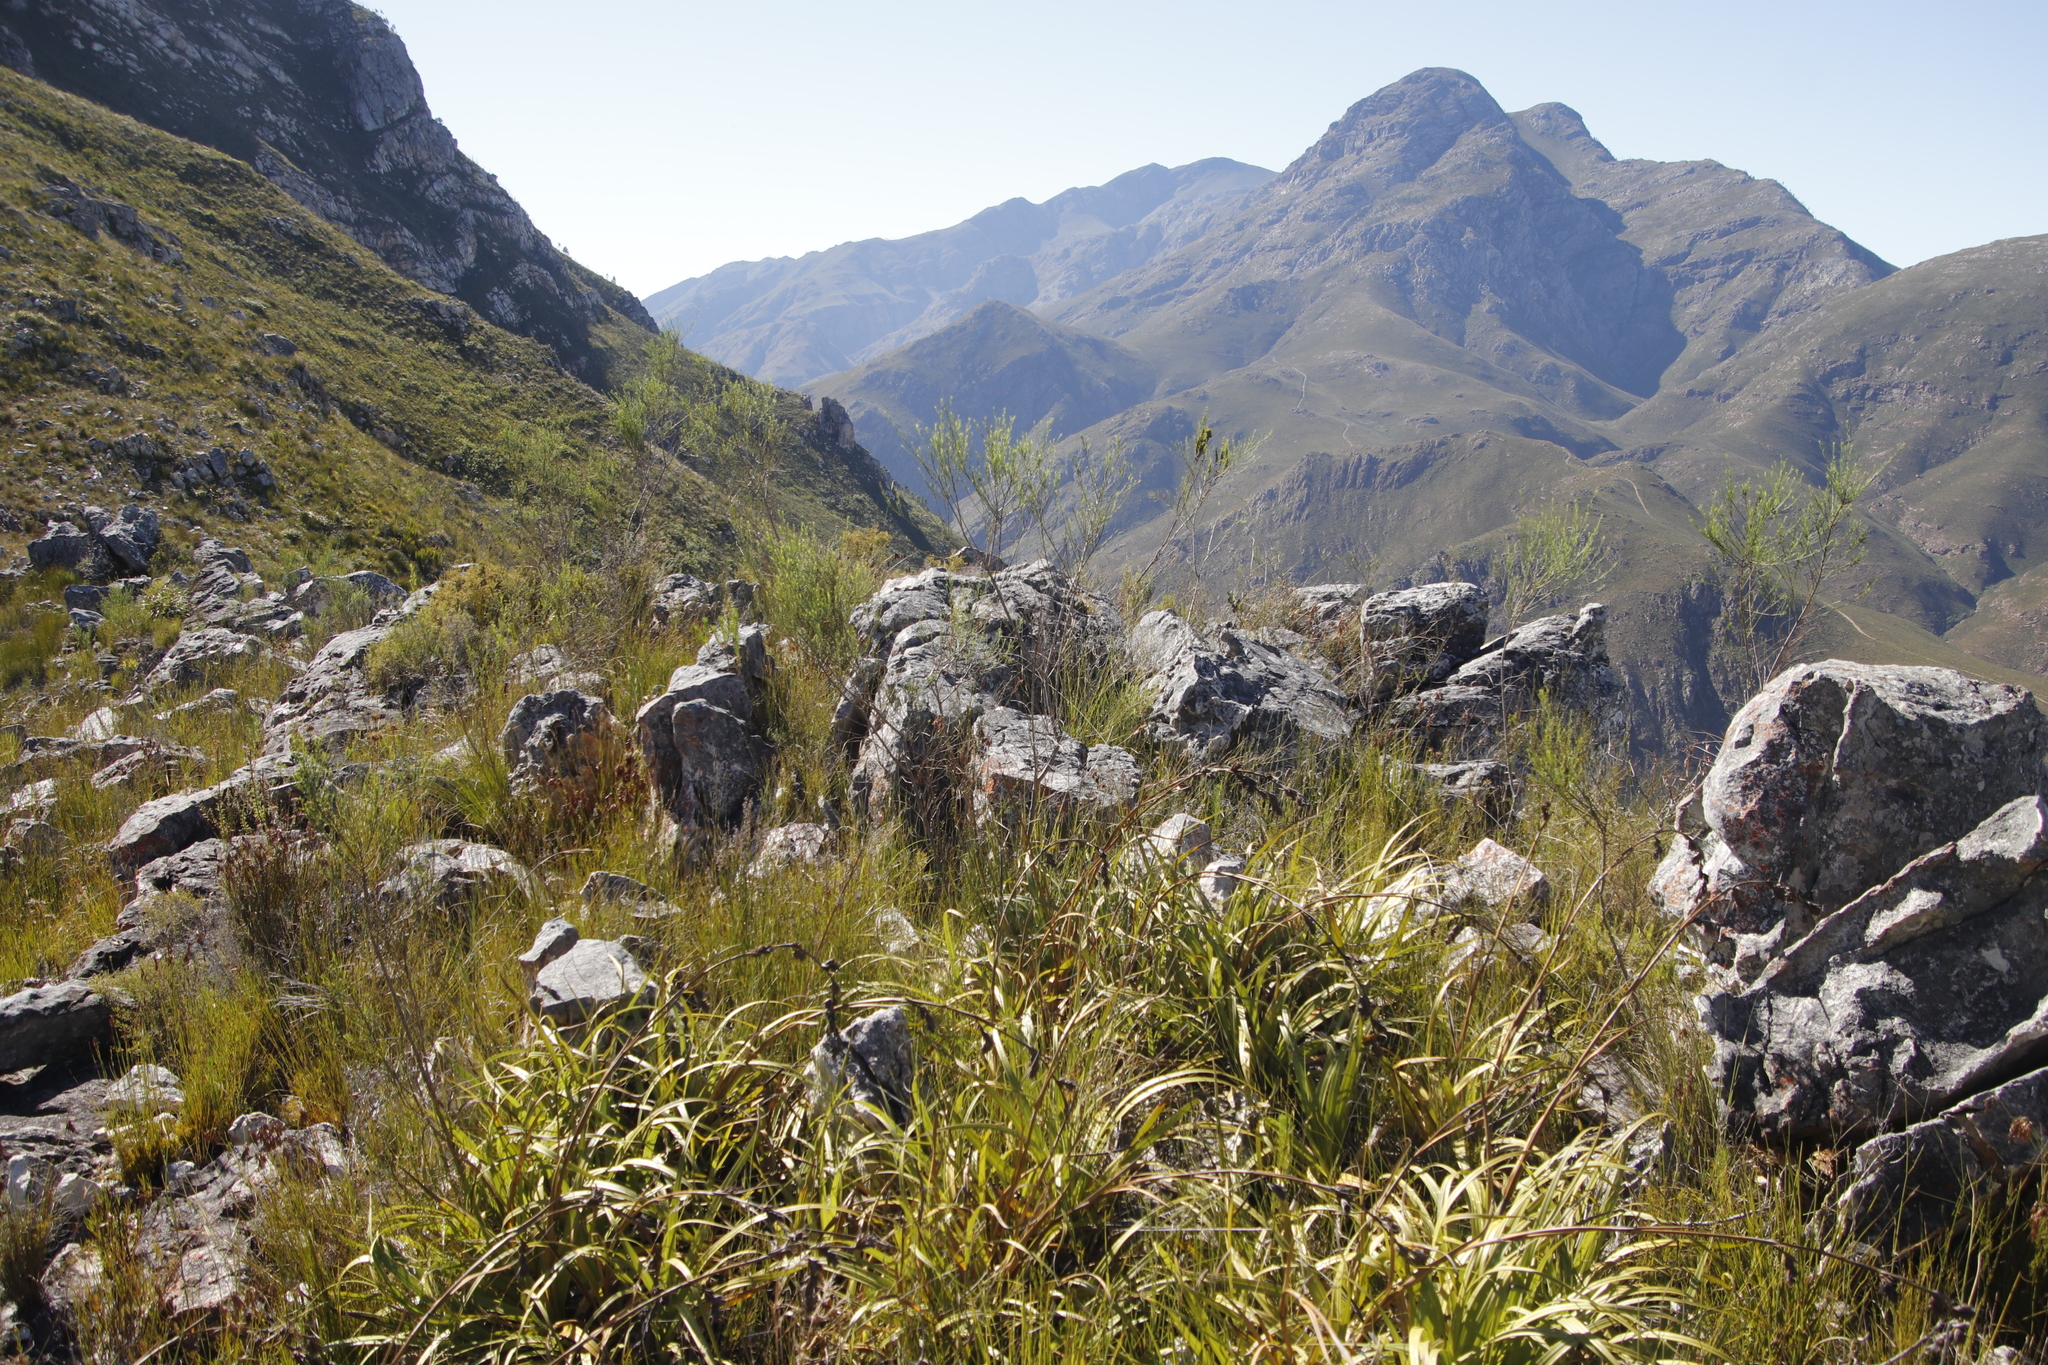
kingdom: Plantae
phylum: Tracheophyta
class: Liliopsida
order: Poales
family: Cyperaceae
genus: Tetraria
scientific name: Tetraria thermalis
